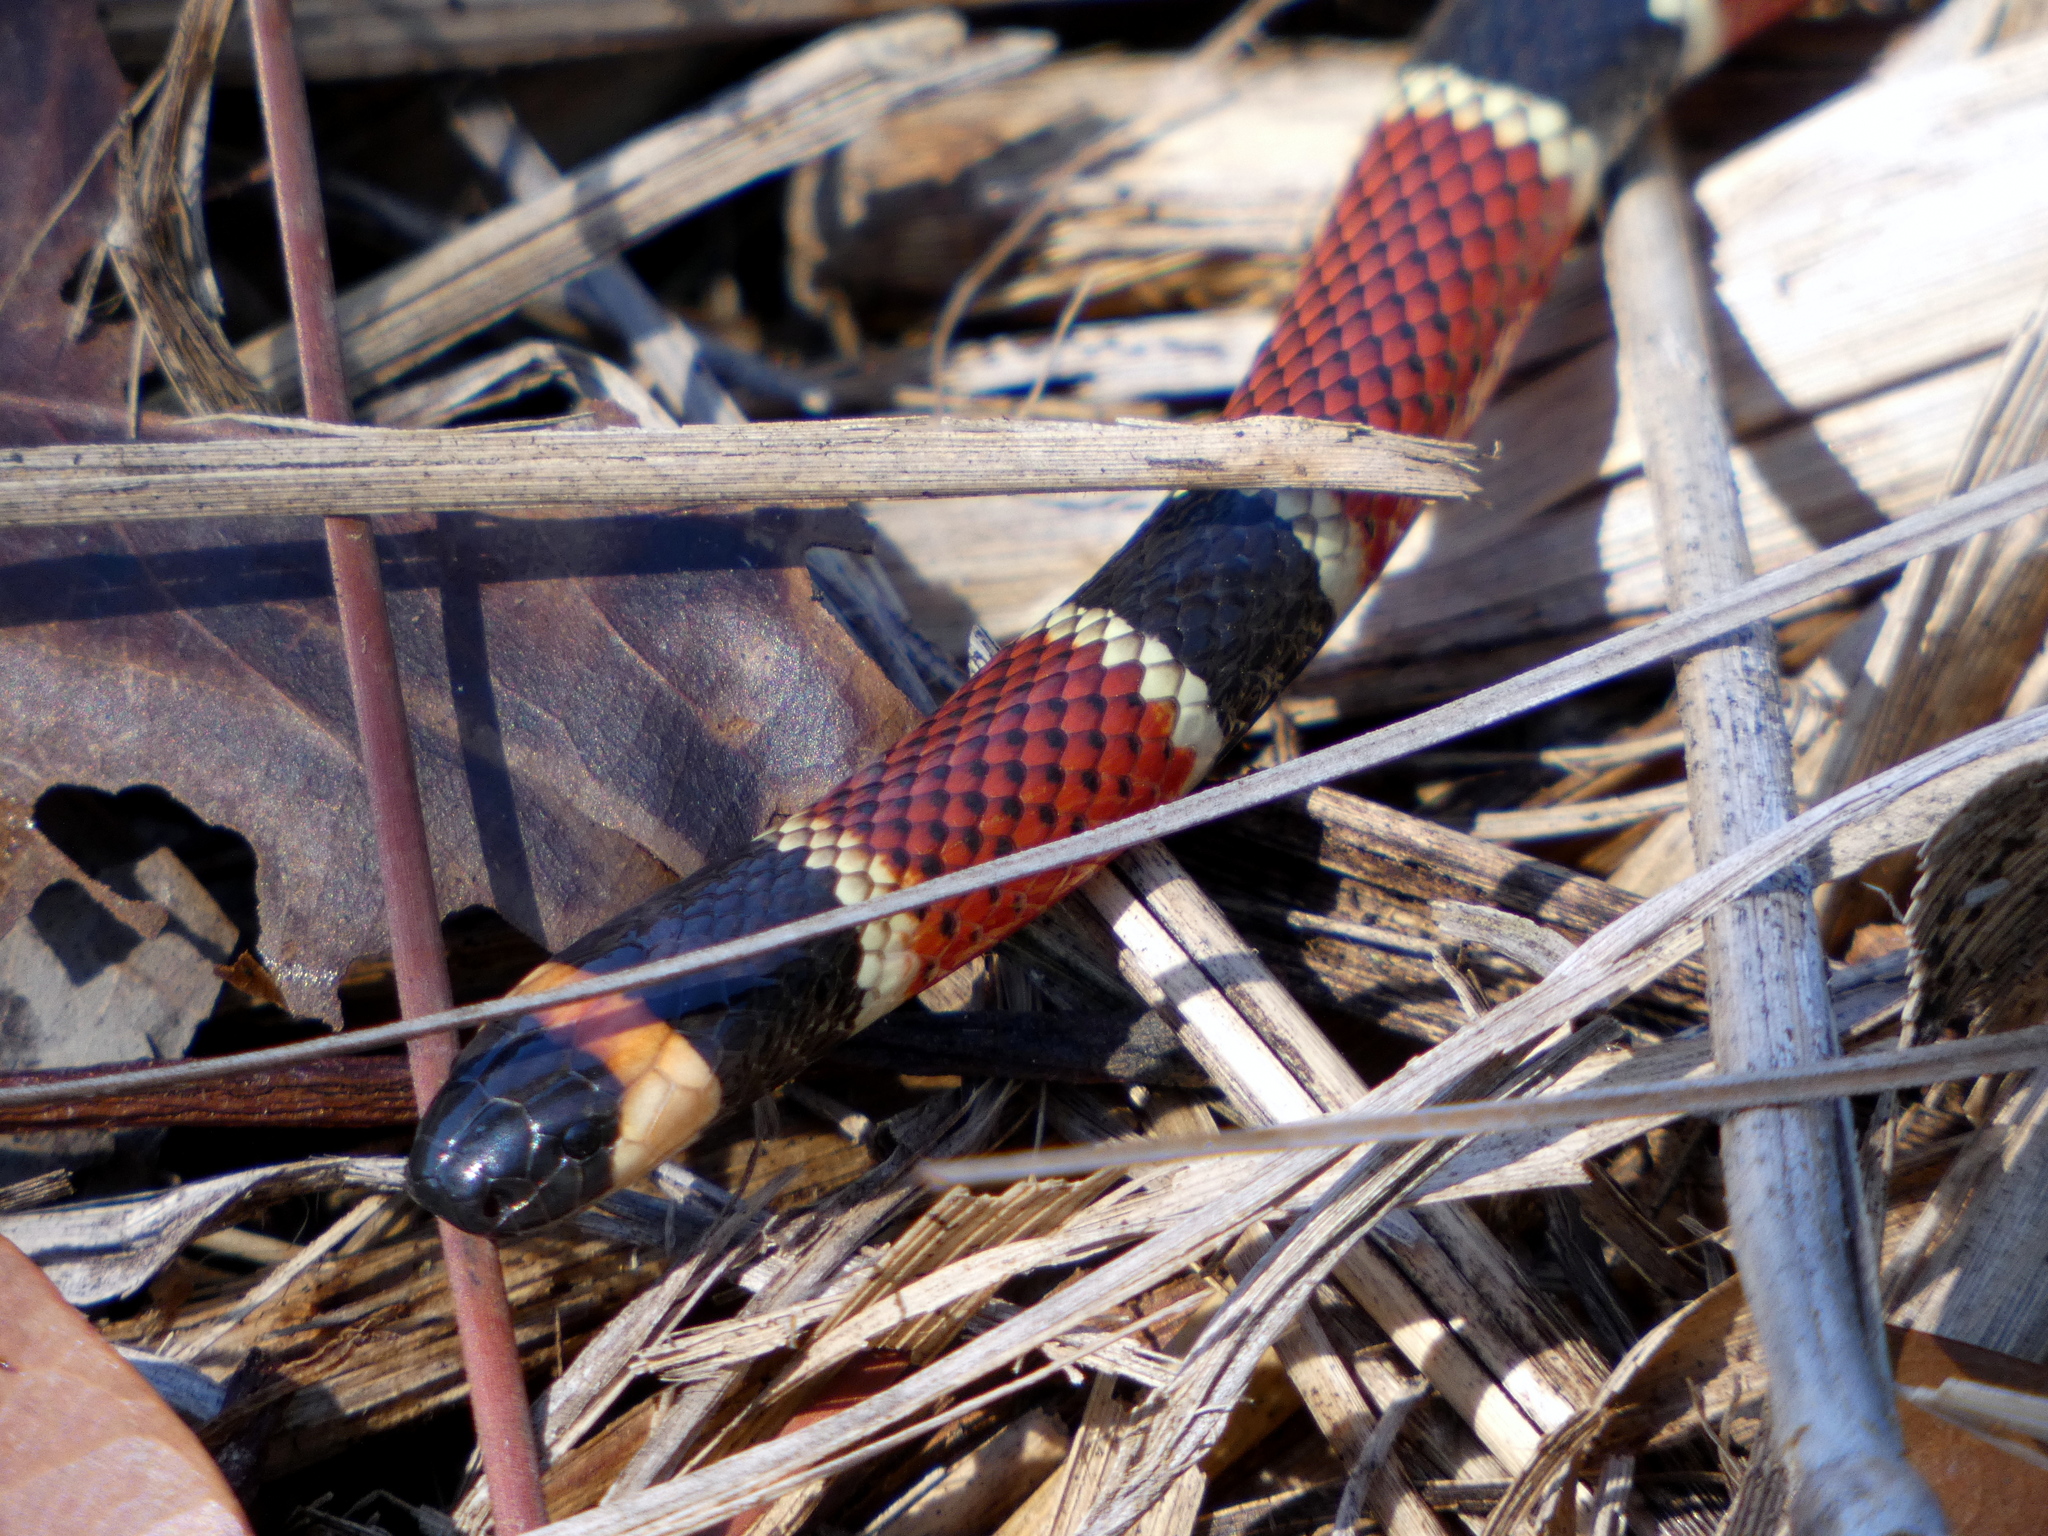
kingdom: Animalia
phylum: Chordata
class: Squamata
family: Elapidae
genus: Micrurus
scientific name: Micrurus nigrocinctus
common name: Babaspul [babaspul]
